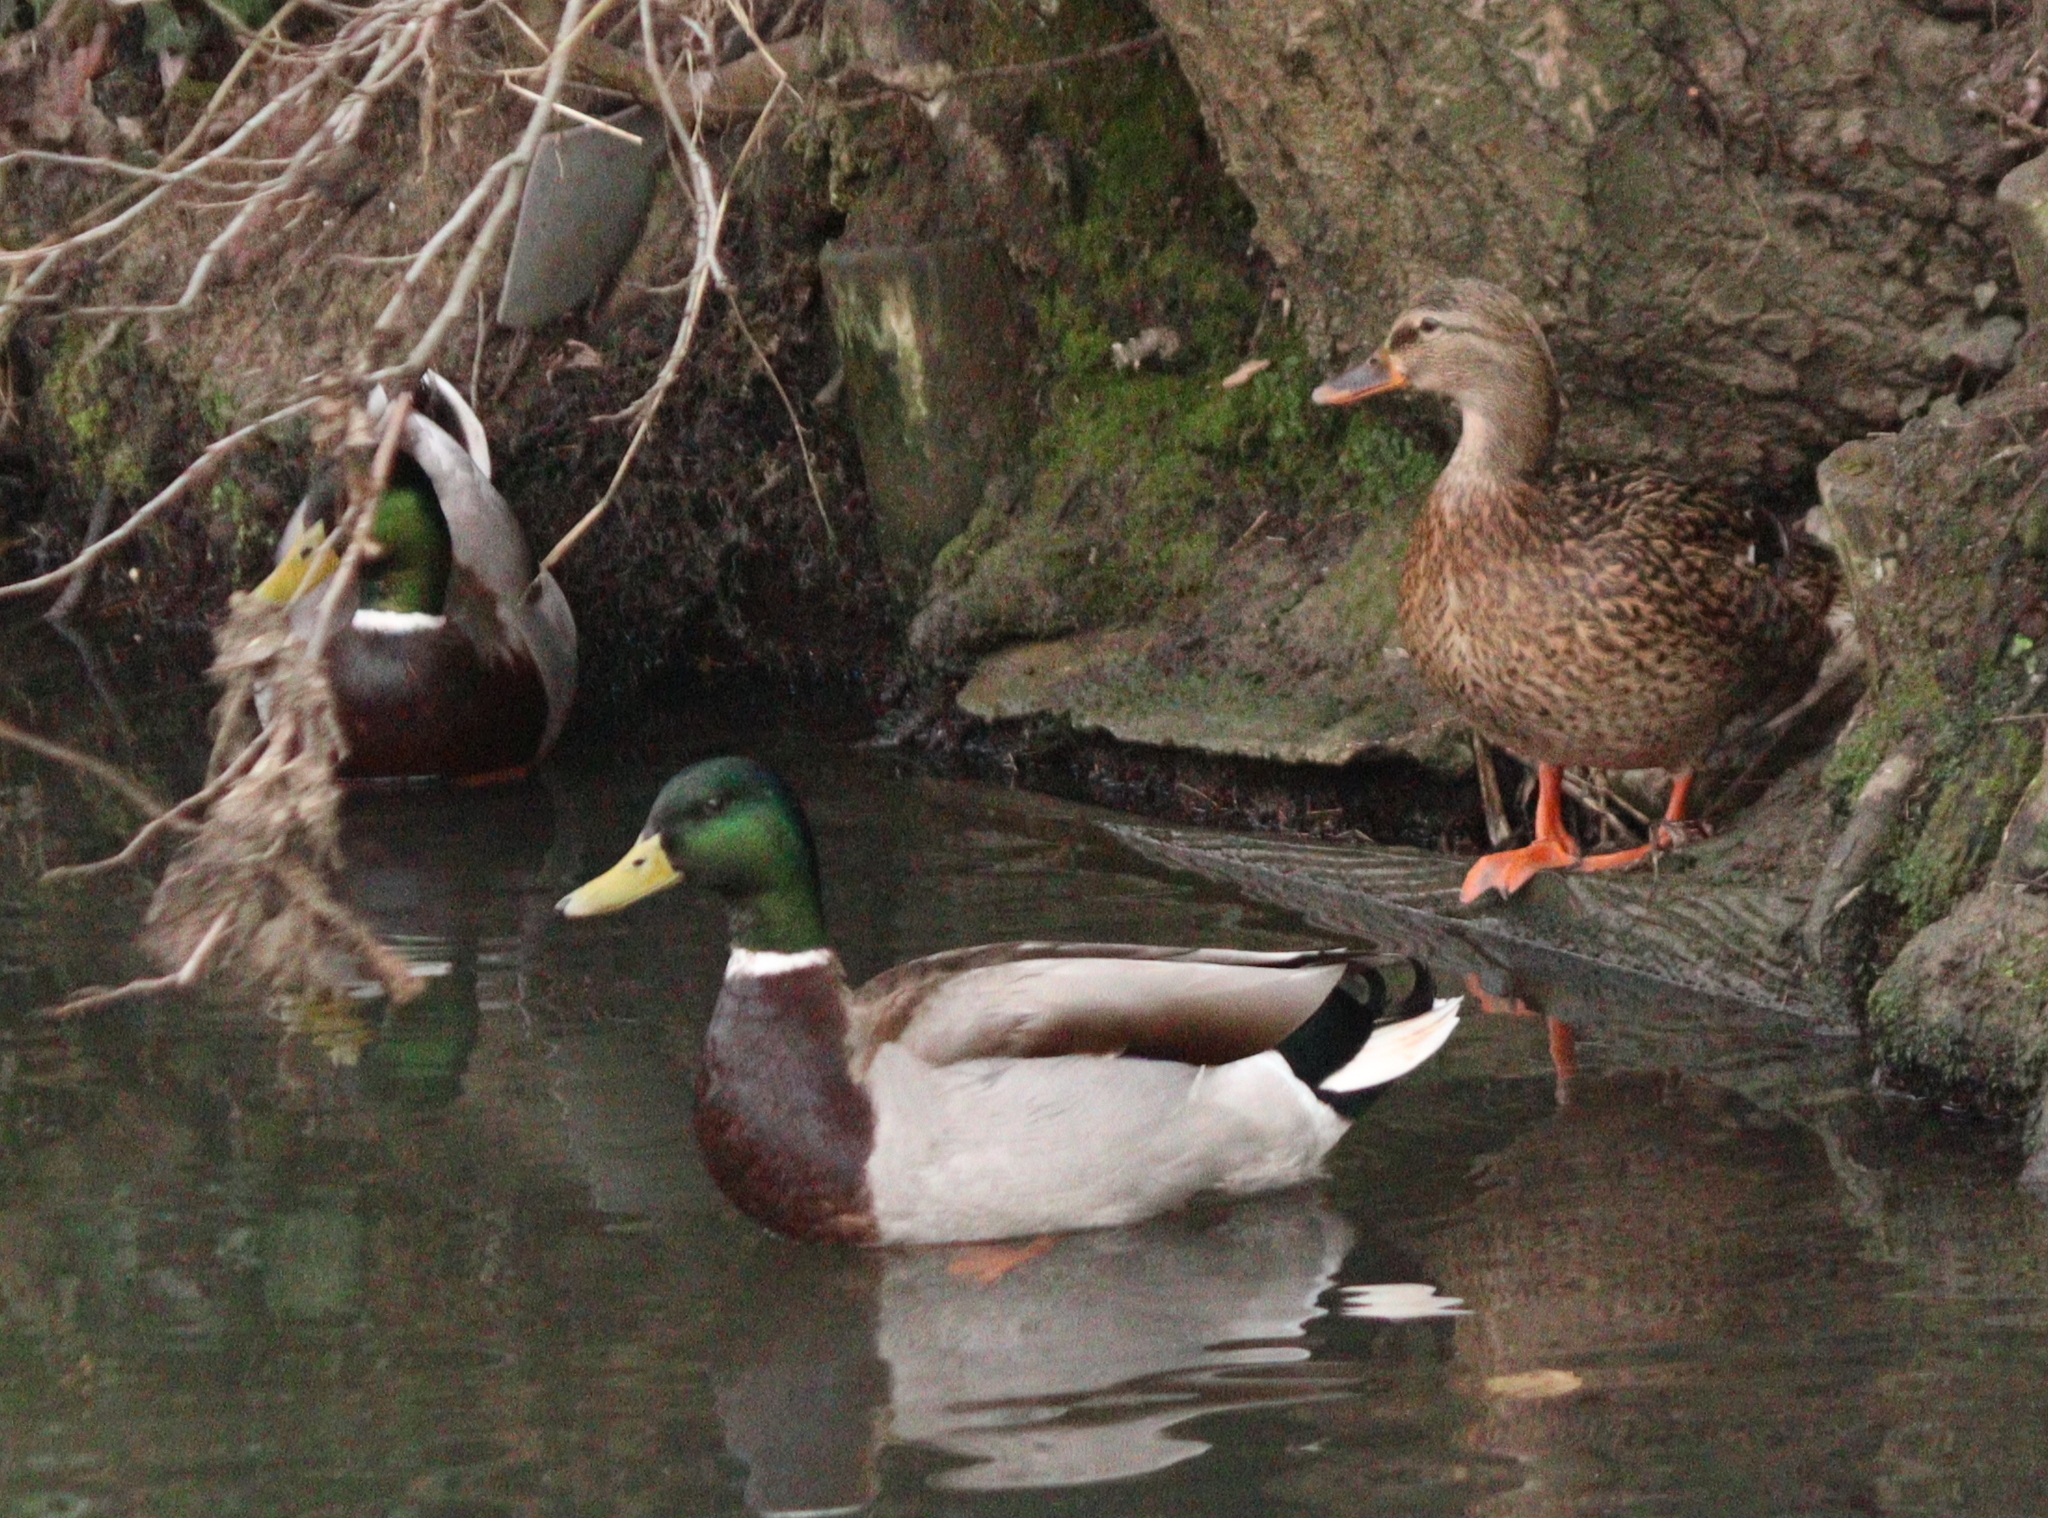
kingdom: Animalia
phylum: Chordata
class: Aves
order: Anseriformes
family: Anatidae
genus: Anas
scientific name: Anas platyrhynchos
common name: Mallard
